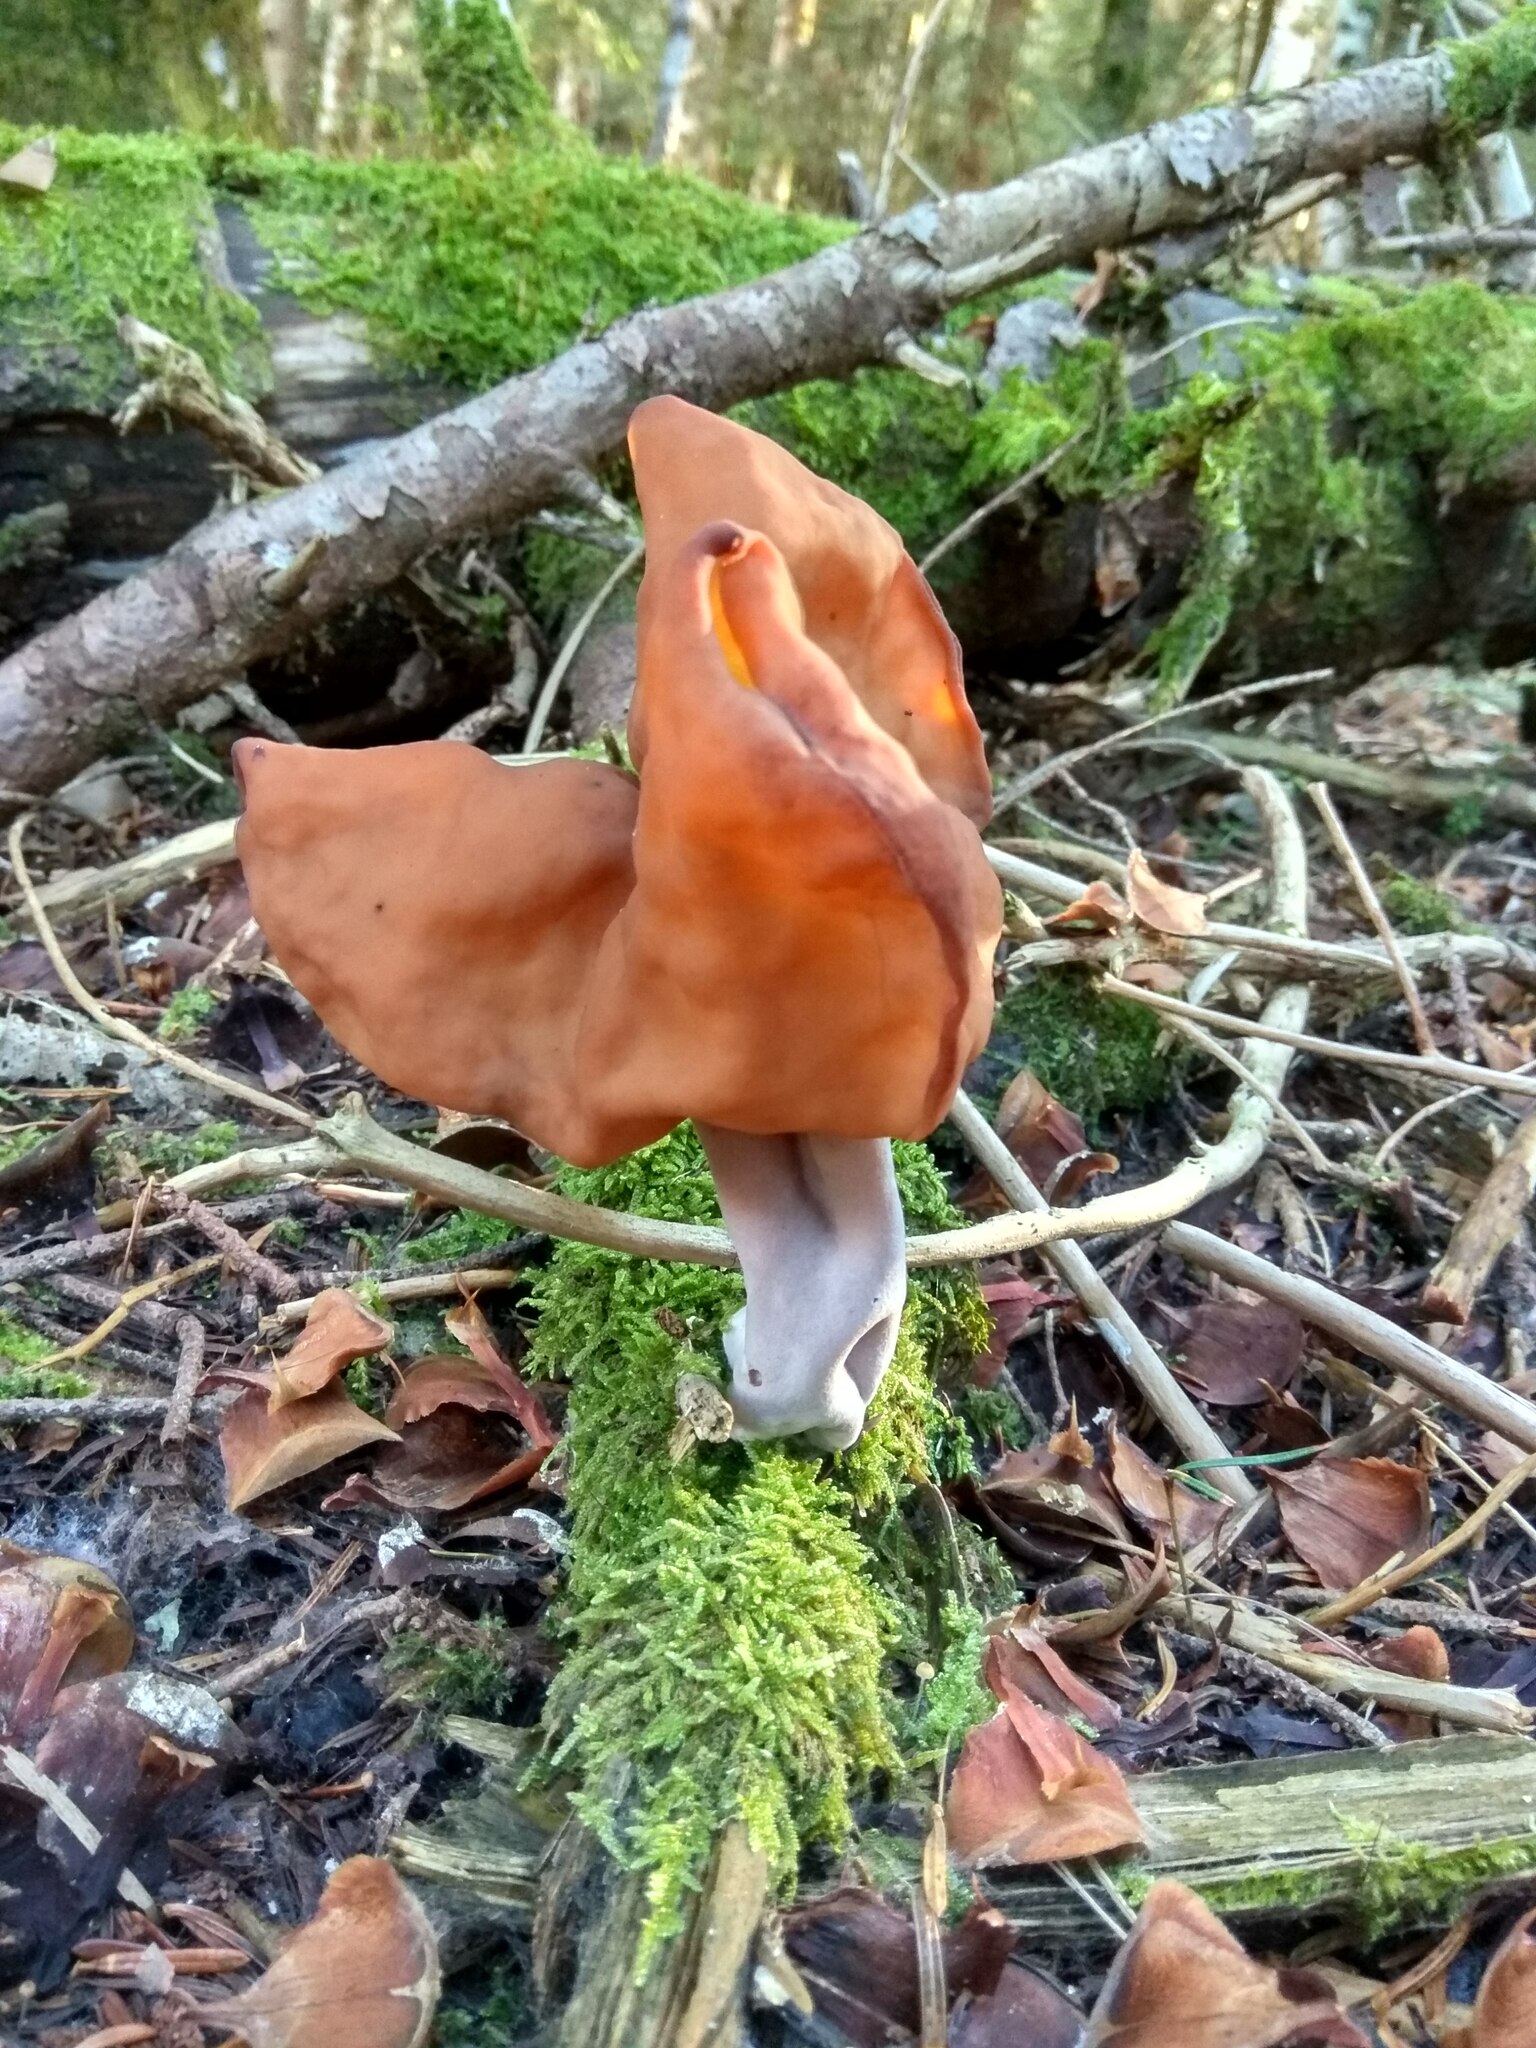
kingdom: Fungi
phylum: Ascomycota
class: Pezizomycetes
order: Pezizales
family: Discinaceae
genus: Gyromitra
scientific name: Gyromitra infula
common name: Pouched false morel
